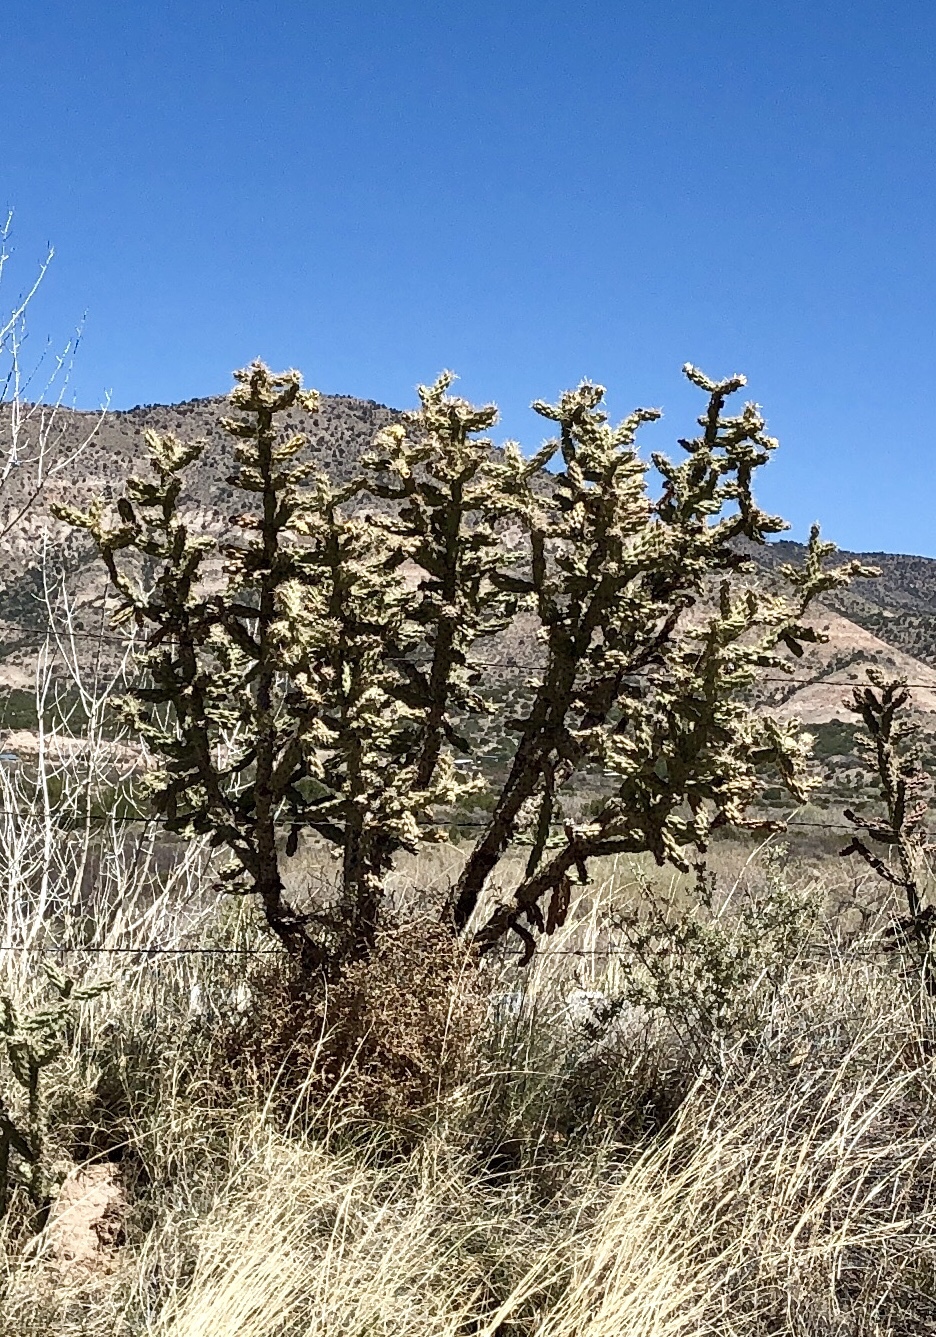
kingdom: Plantae
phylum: Tracheophyta
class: Magnoliopsida
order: Caryophyllales
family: Cactaceae
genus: Cylindropuntia
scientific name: Cylindropuntia imbricata
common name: Candelabrum cactus
